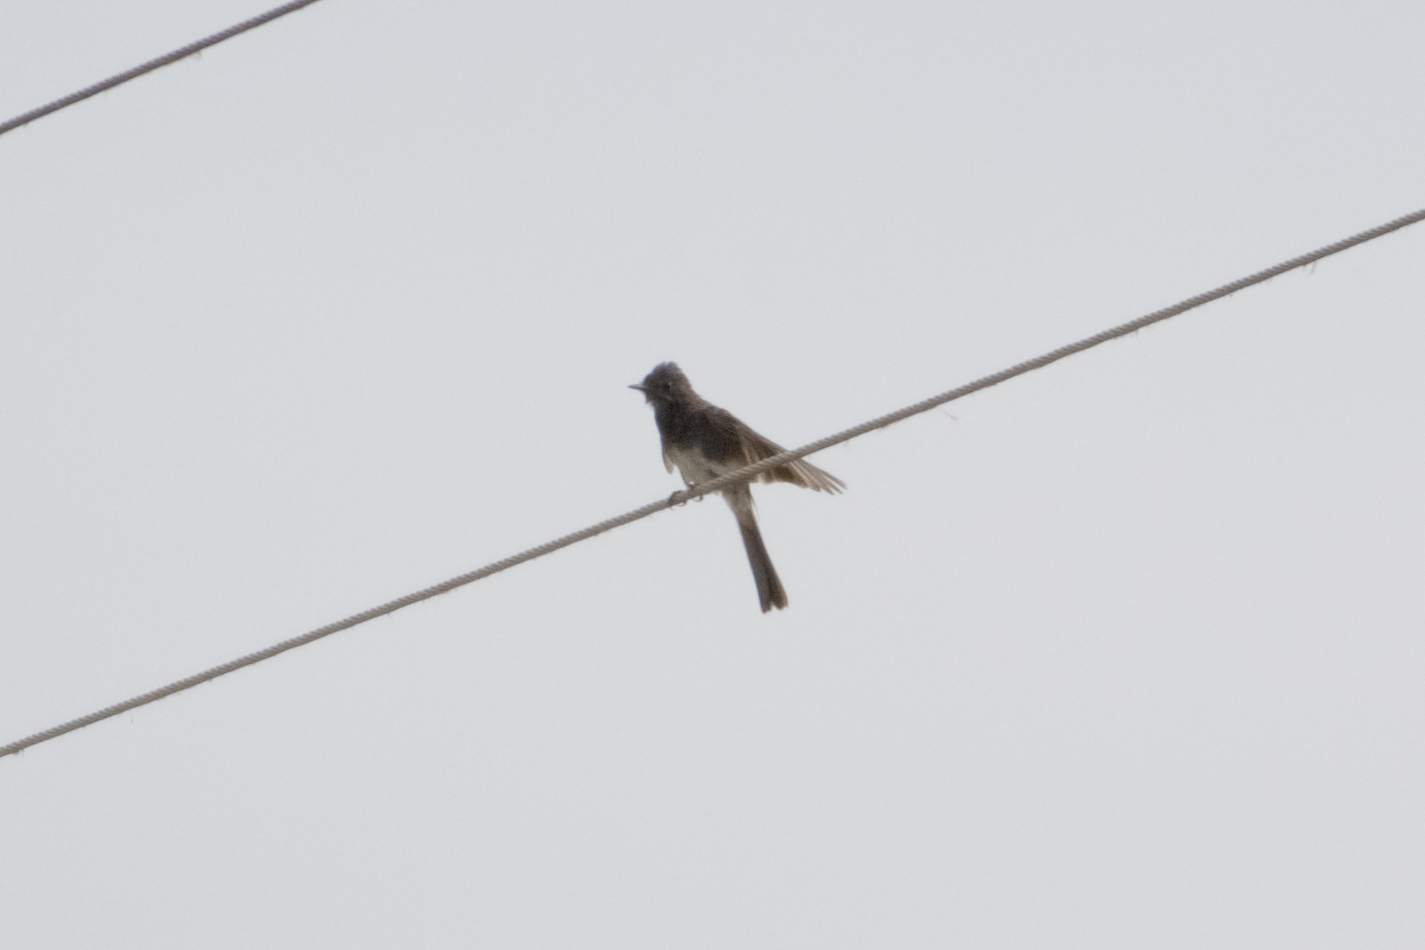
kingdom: Animalia
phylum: Chordata
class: Aves
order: Passeriformes
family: Tyrannidae
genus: Sayornis
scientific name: Sayornis nigricans
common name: Black phoebe
